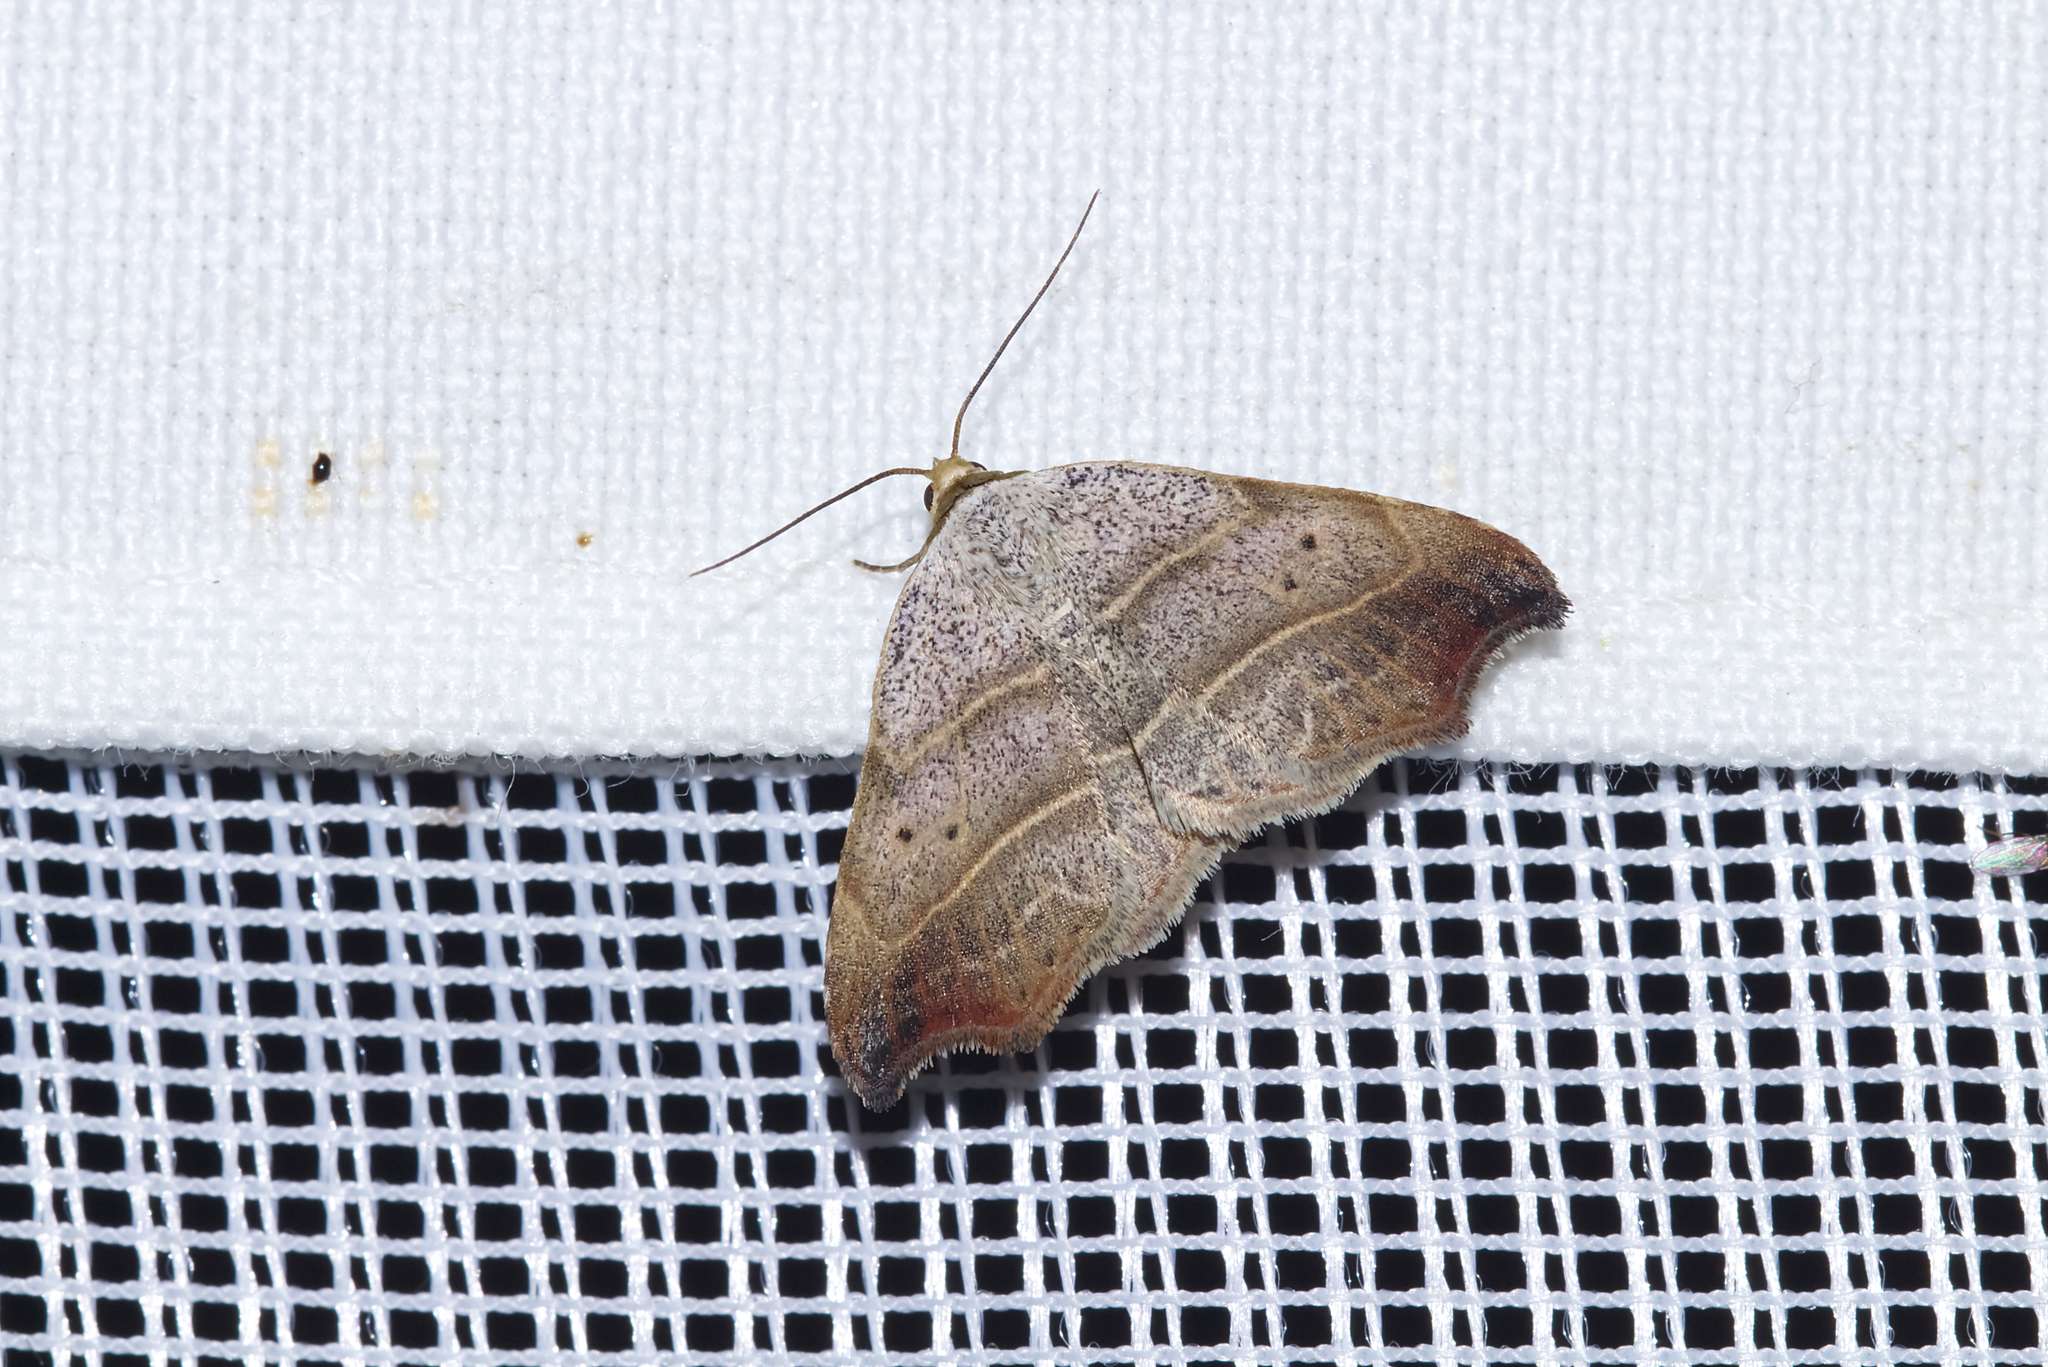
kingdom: Animalia
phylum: Arthropoda
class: Insecta
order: Lepidoptera
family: Erebidae
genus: Laspeyria
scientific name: Laspeyria flexula
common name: Beautiful hook-tip
